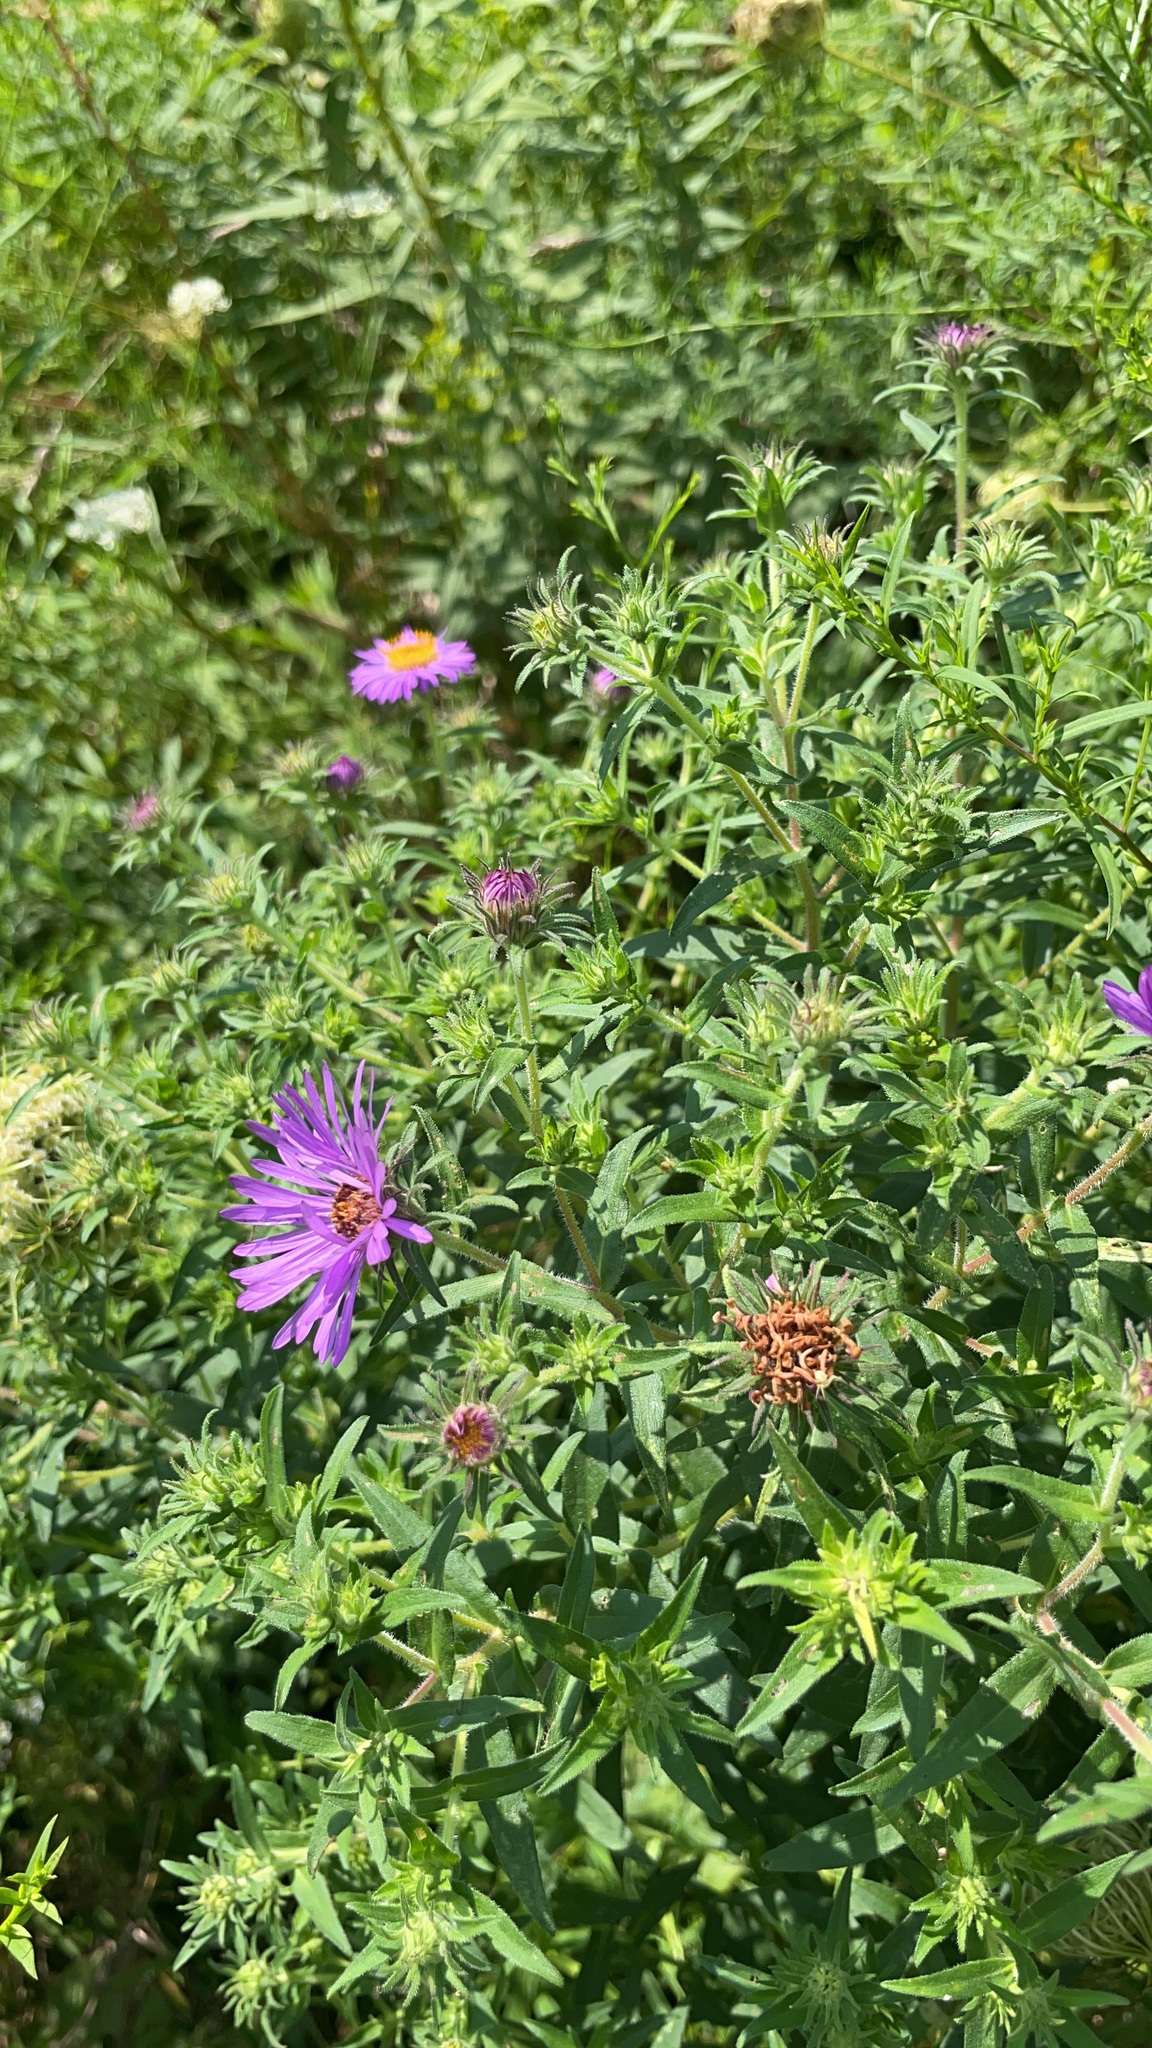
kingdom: Plantae
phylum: Tracheophyta
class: Magnoliopsida
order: Asterales
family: Asteraceae
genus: Symphyotrichum
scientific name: Symphyotrichum novae-angliae
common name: Michaelmas daisy
